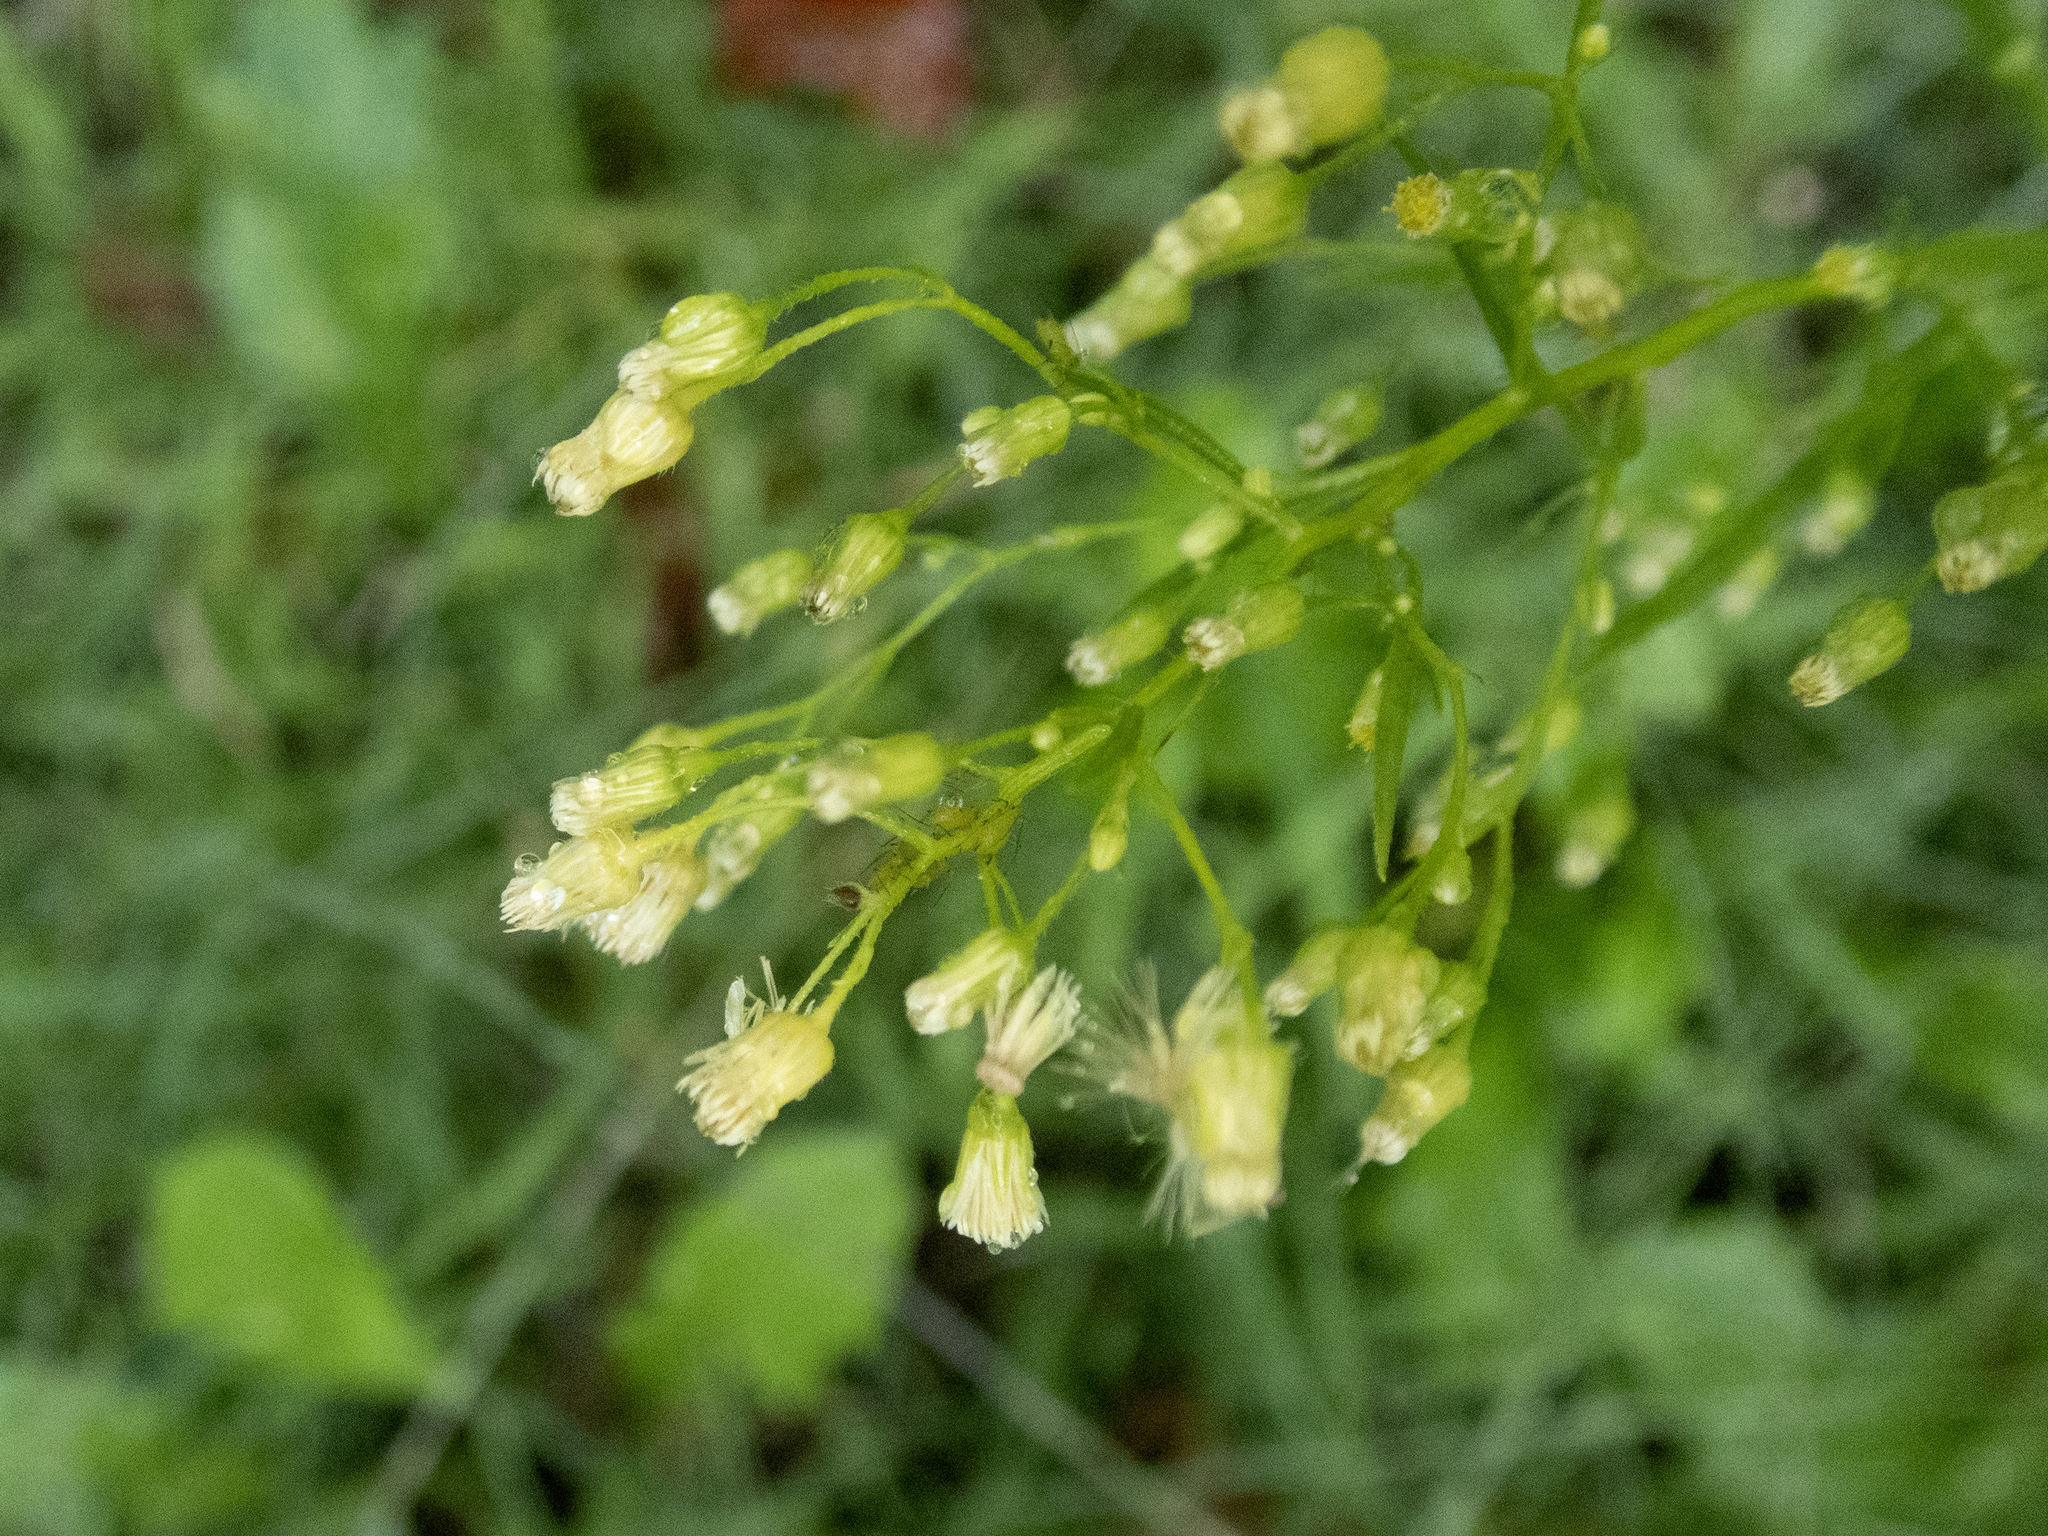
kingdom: Plantae
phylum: Tracheophyta
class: Magnoliopsida
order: Asterales
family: Asteraceae
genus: Erigeron
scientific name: Erigeron canadensis
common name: Canadian fleabane
